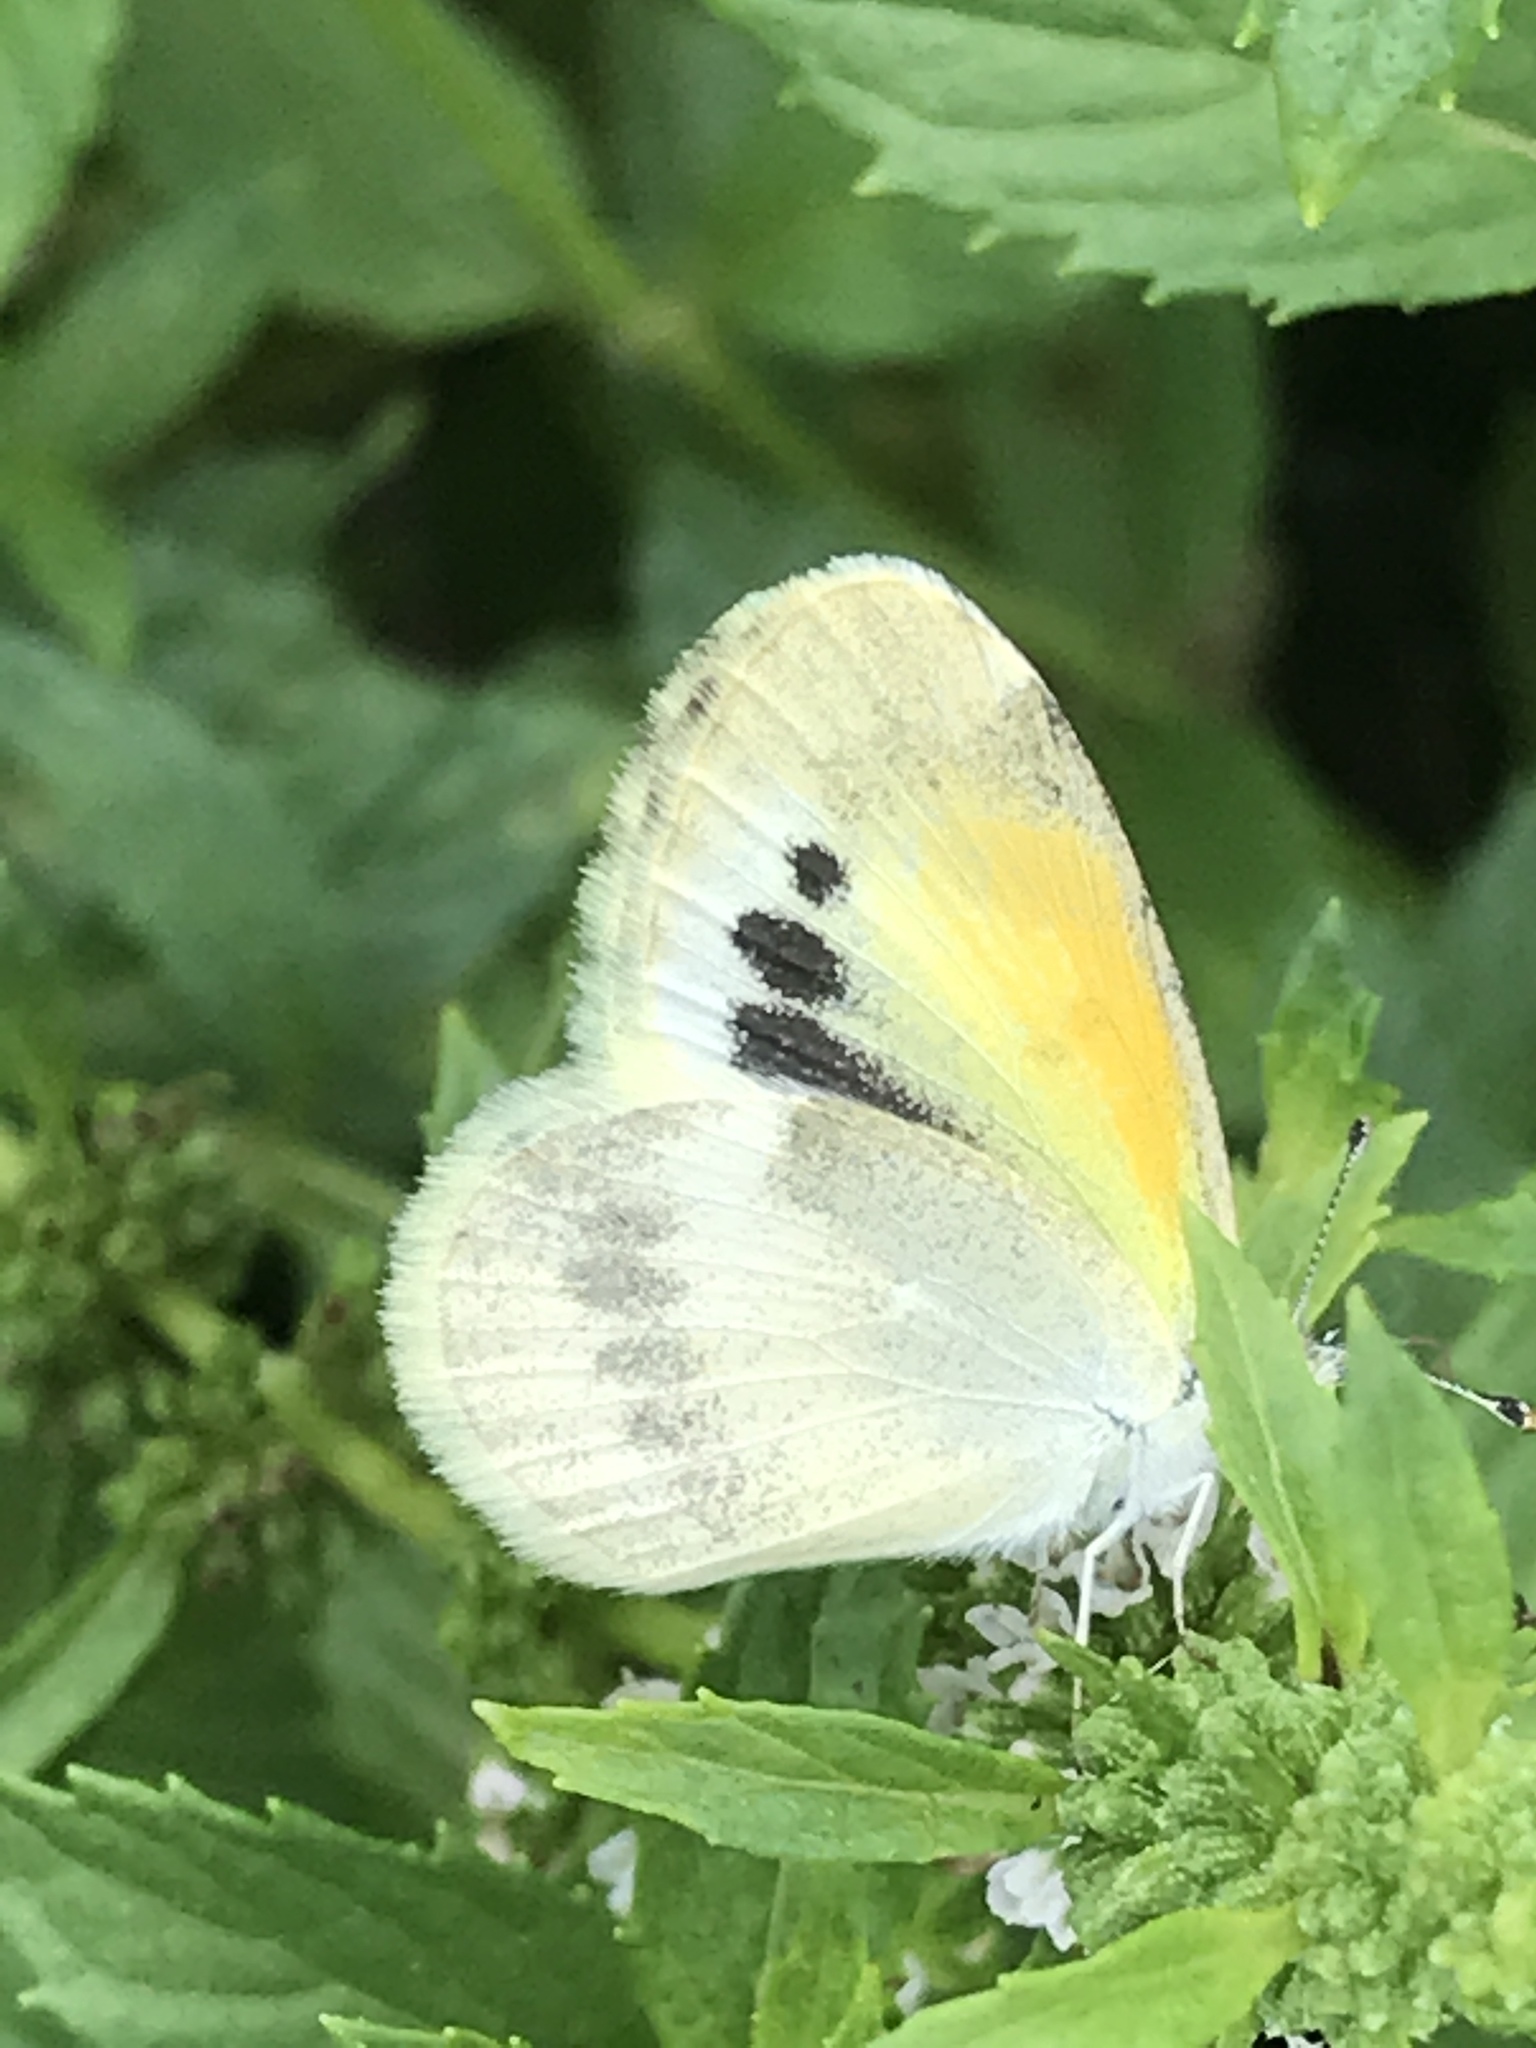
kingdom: Animalia
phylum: Arthropoda
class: Insecta
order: Lepidoptera
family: Pieridae
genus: Nathalis
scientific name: Nathalis iole
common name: Dainty sulphur
